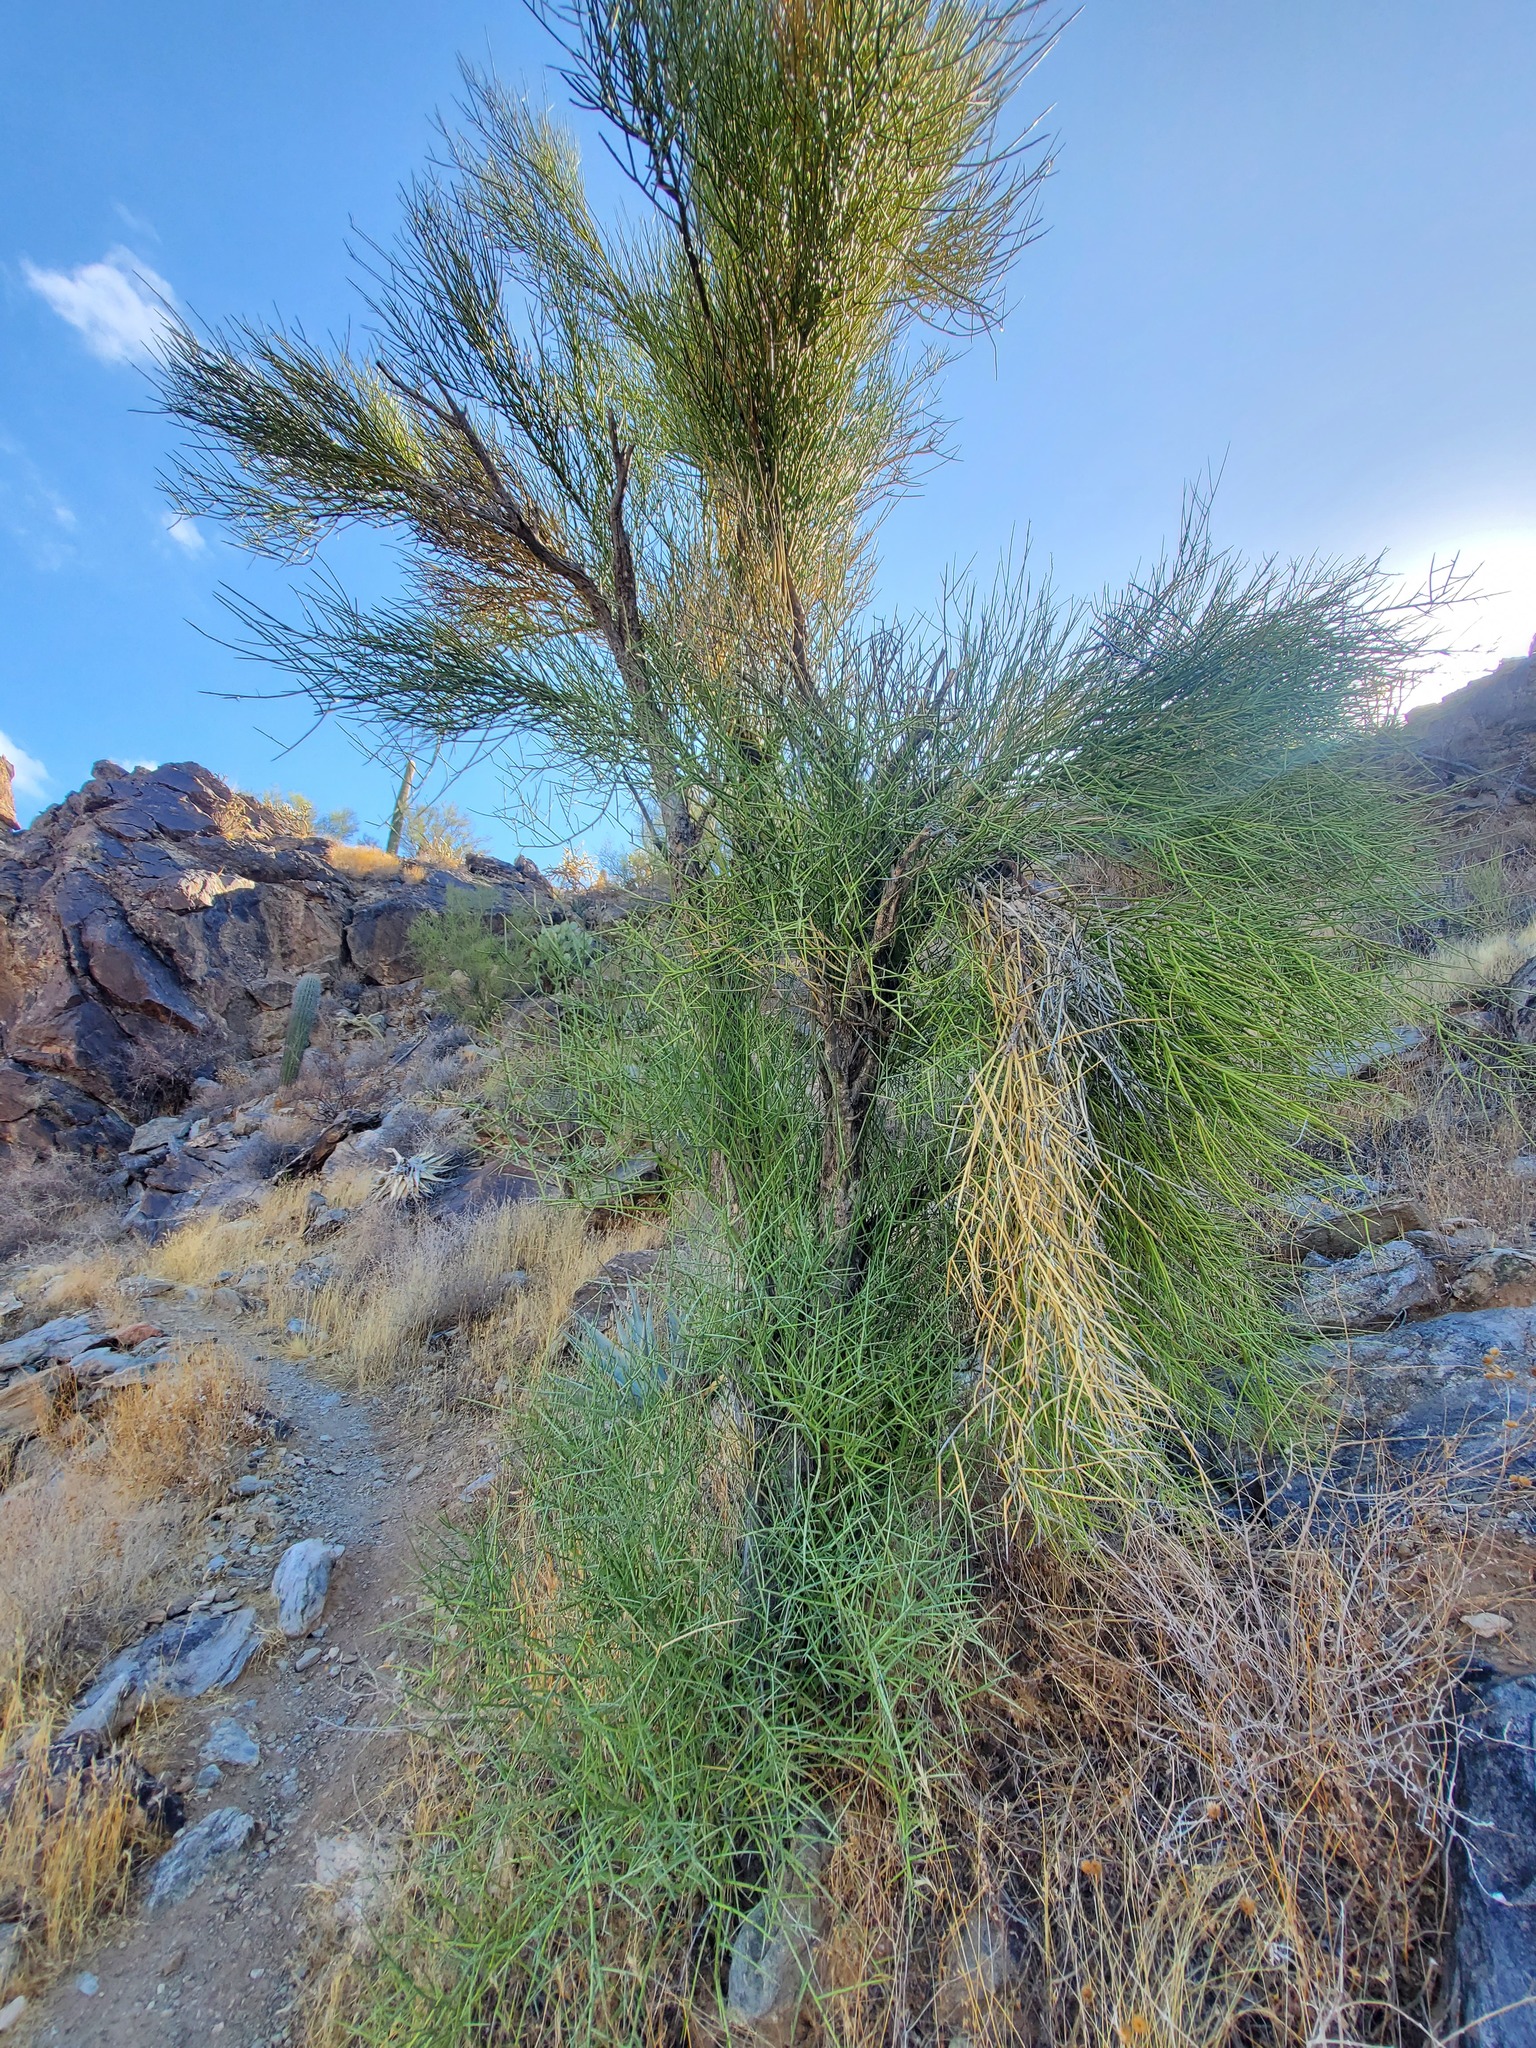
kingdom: Plantae
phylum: Tracheophyta
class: Magnoliopsida
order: Celastrales
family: Celastraceae
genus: Canotia
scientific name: Canotia holacantha
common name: Crucifixion thorns
